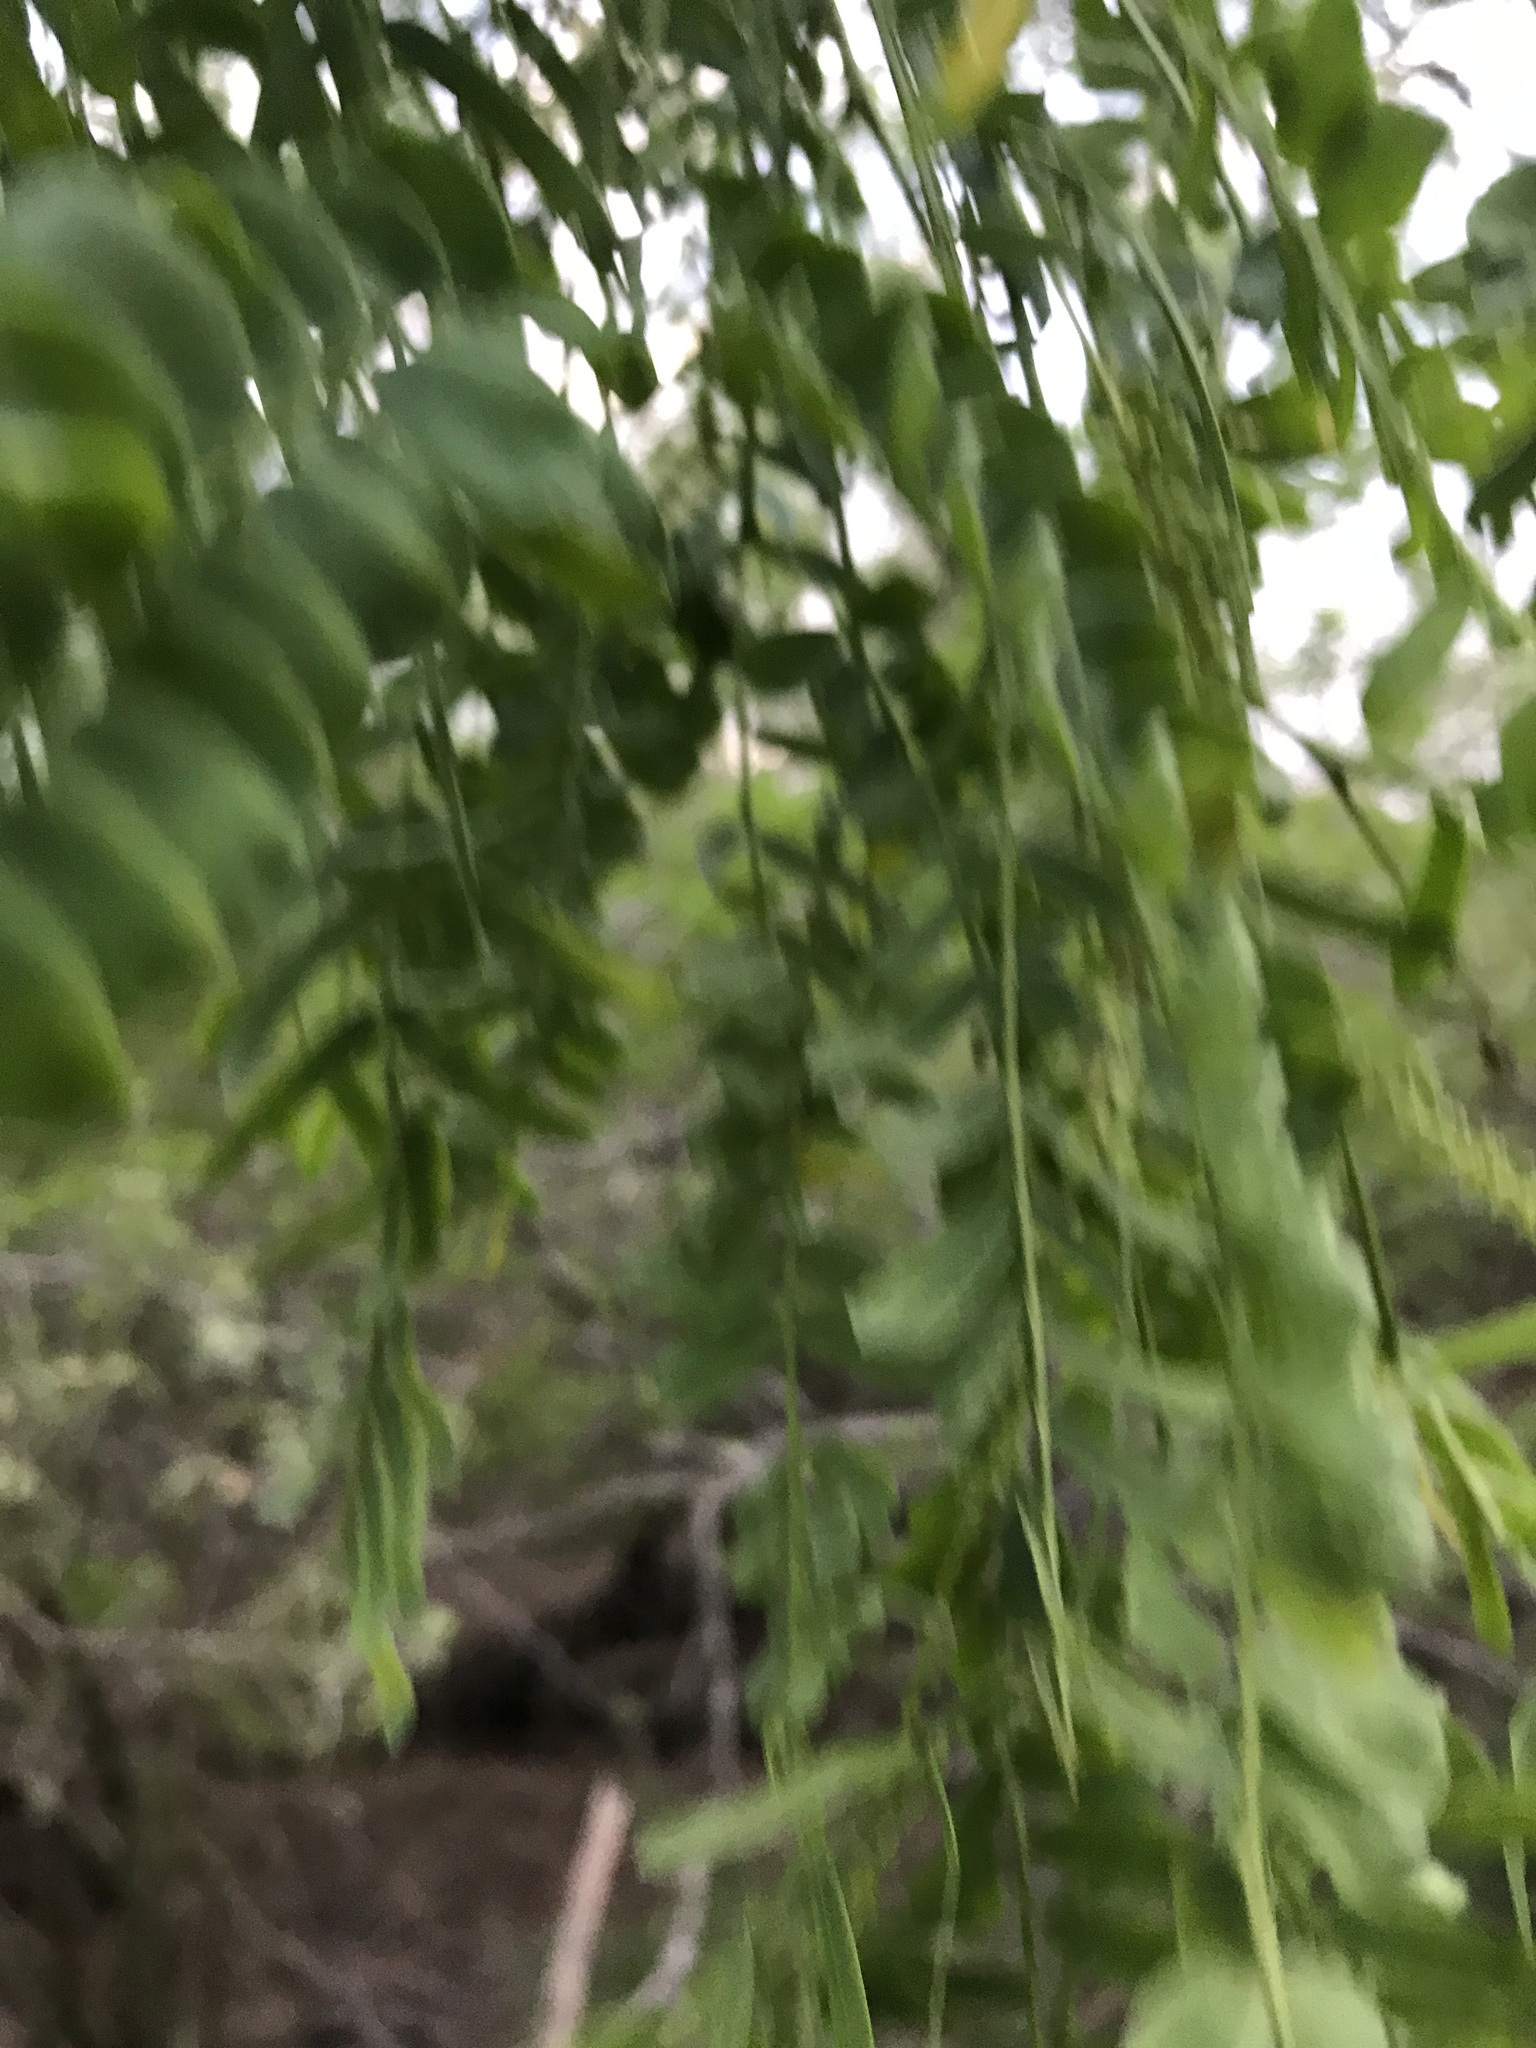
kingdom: Plantae
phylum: Tracheophyta
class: Magnoliopsida
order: Fabales
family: Fabaceae
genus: Prosopis
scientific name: Prosopis glandulosa
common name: Honey mesquite
